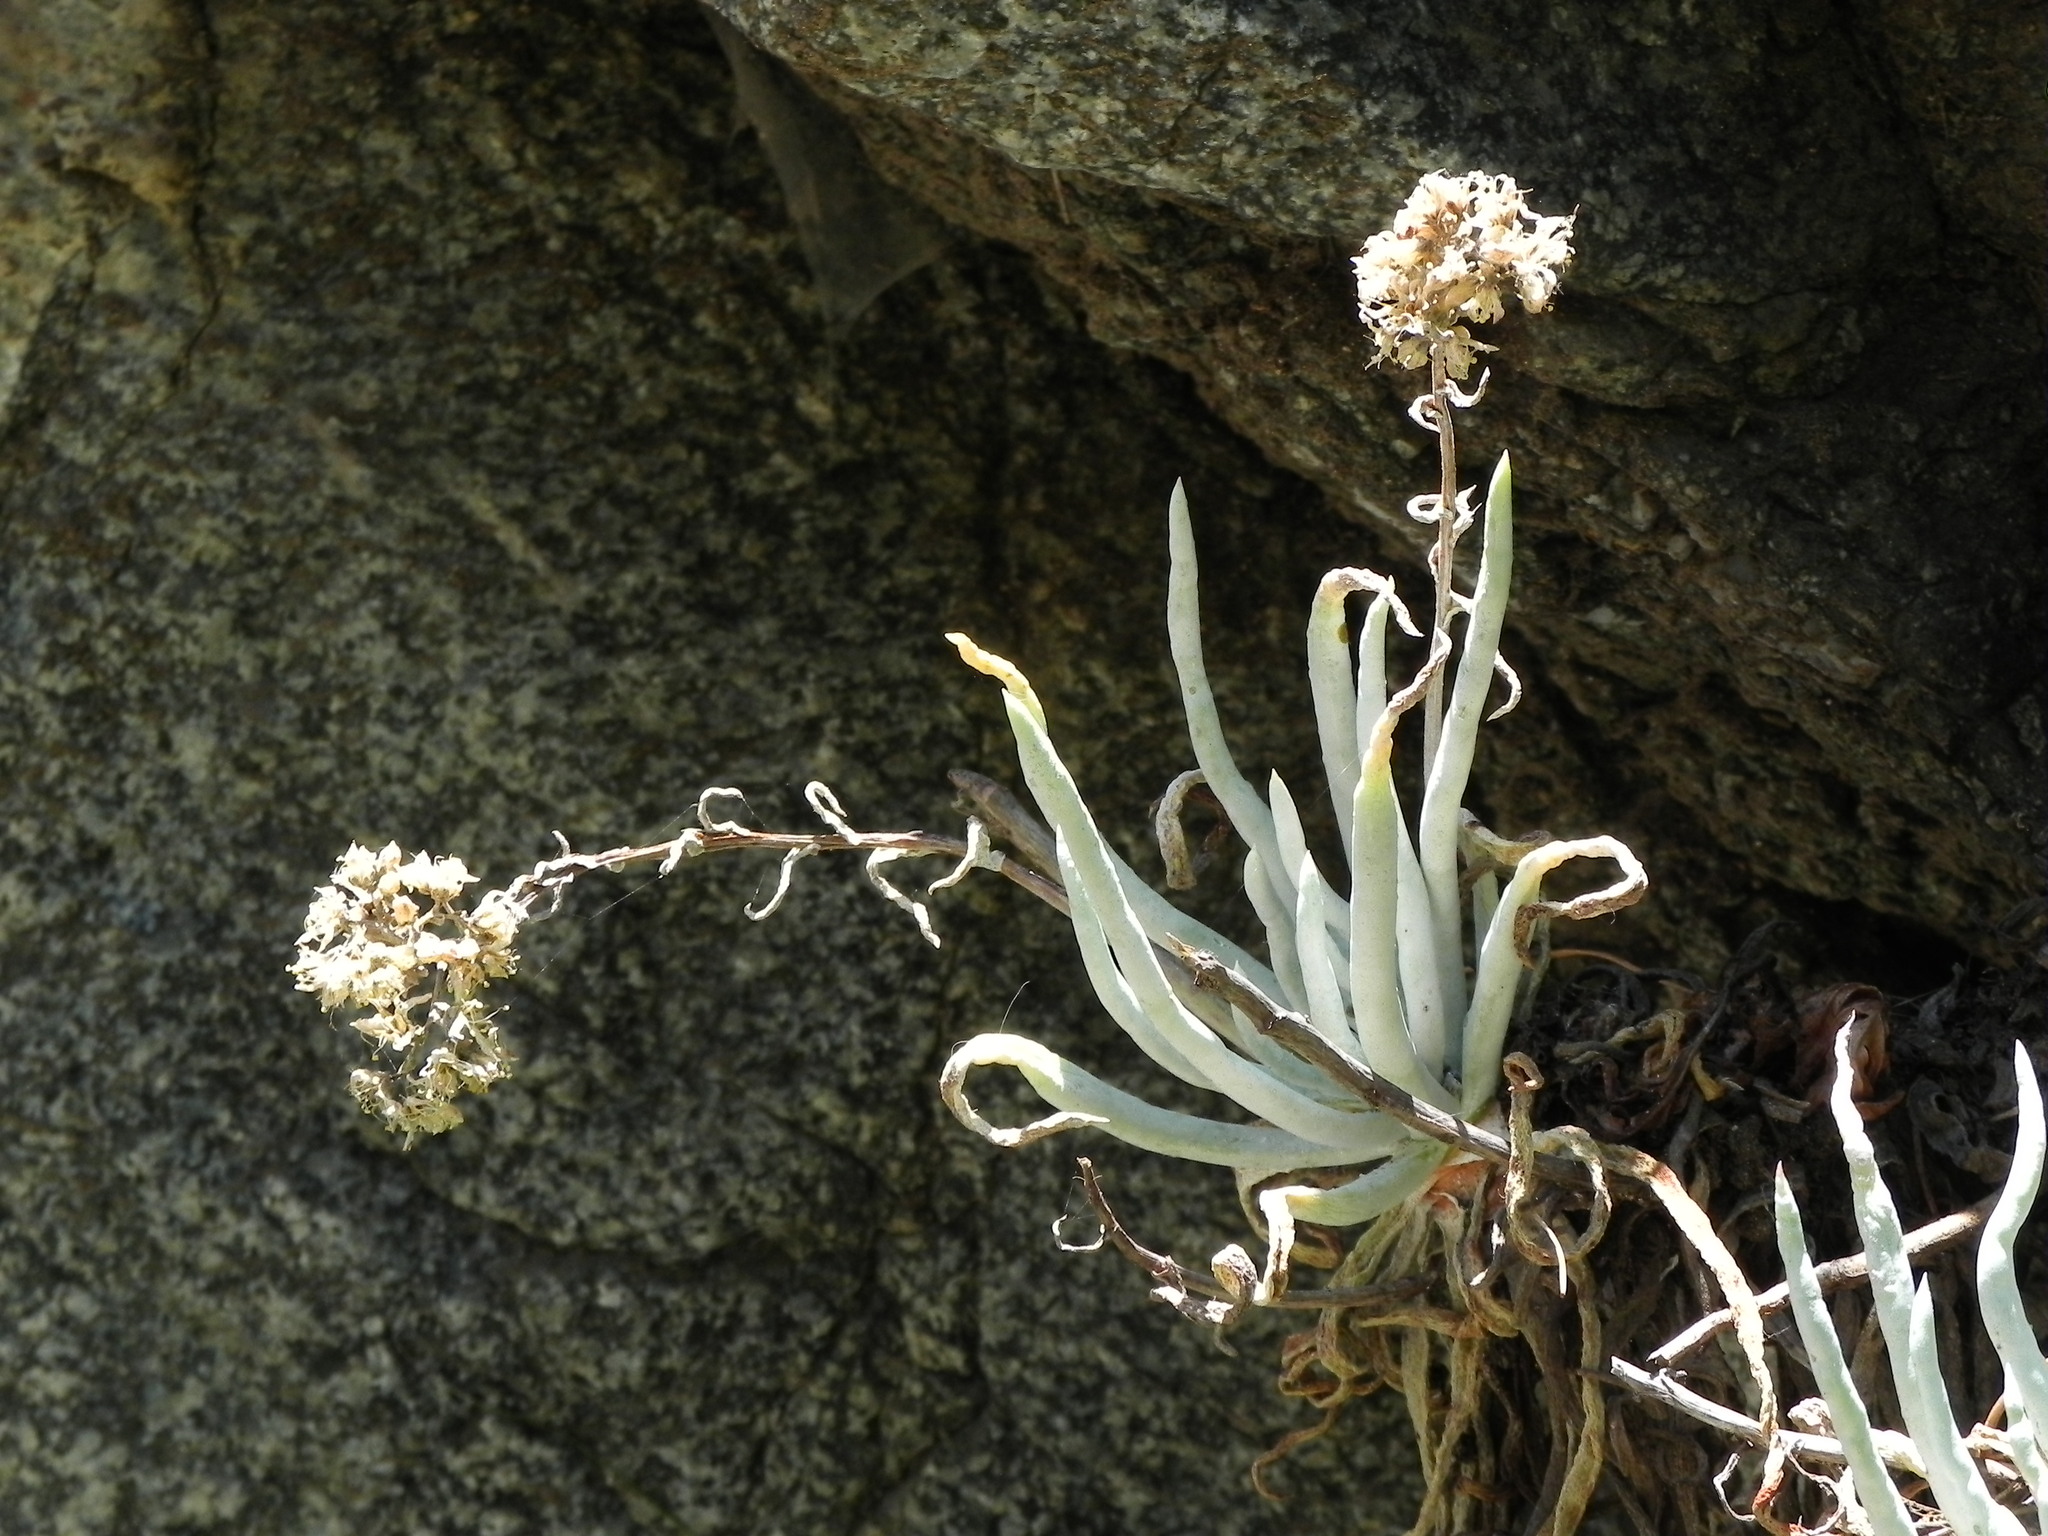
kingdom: Plantae
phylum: Tracheophyta
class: Magnoliopsida
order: Saxifragales
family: Crassulaceae
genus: Dudleya
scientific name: Dudleya densiflora
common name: San gabriel mountains dudleya
